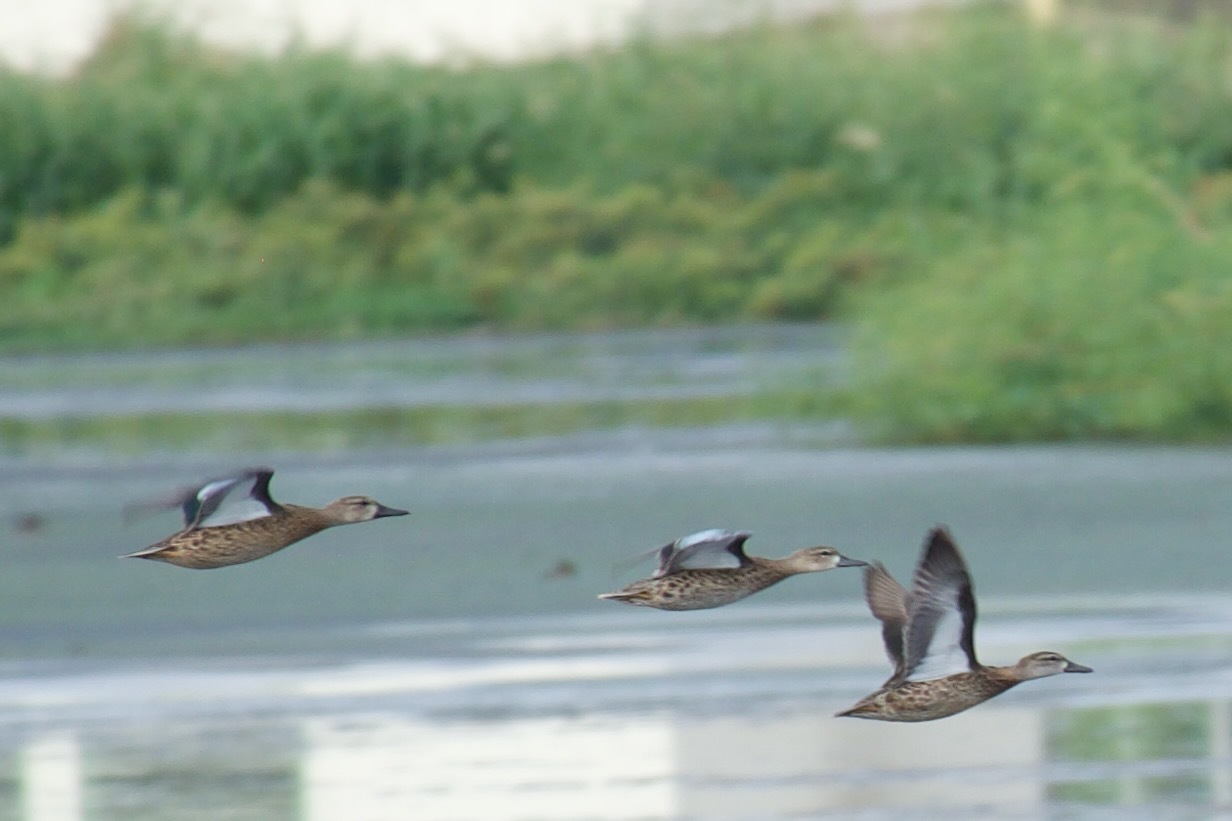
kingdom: Animalia
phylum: Chordata
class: Aves
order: Anseriformes
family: Anatidae
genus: Spatula
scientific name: Spatula discors
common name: Blue-winged teal
